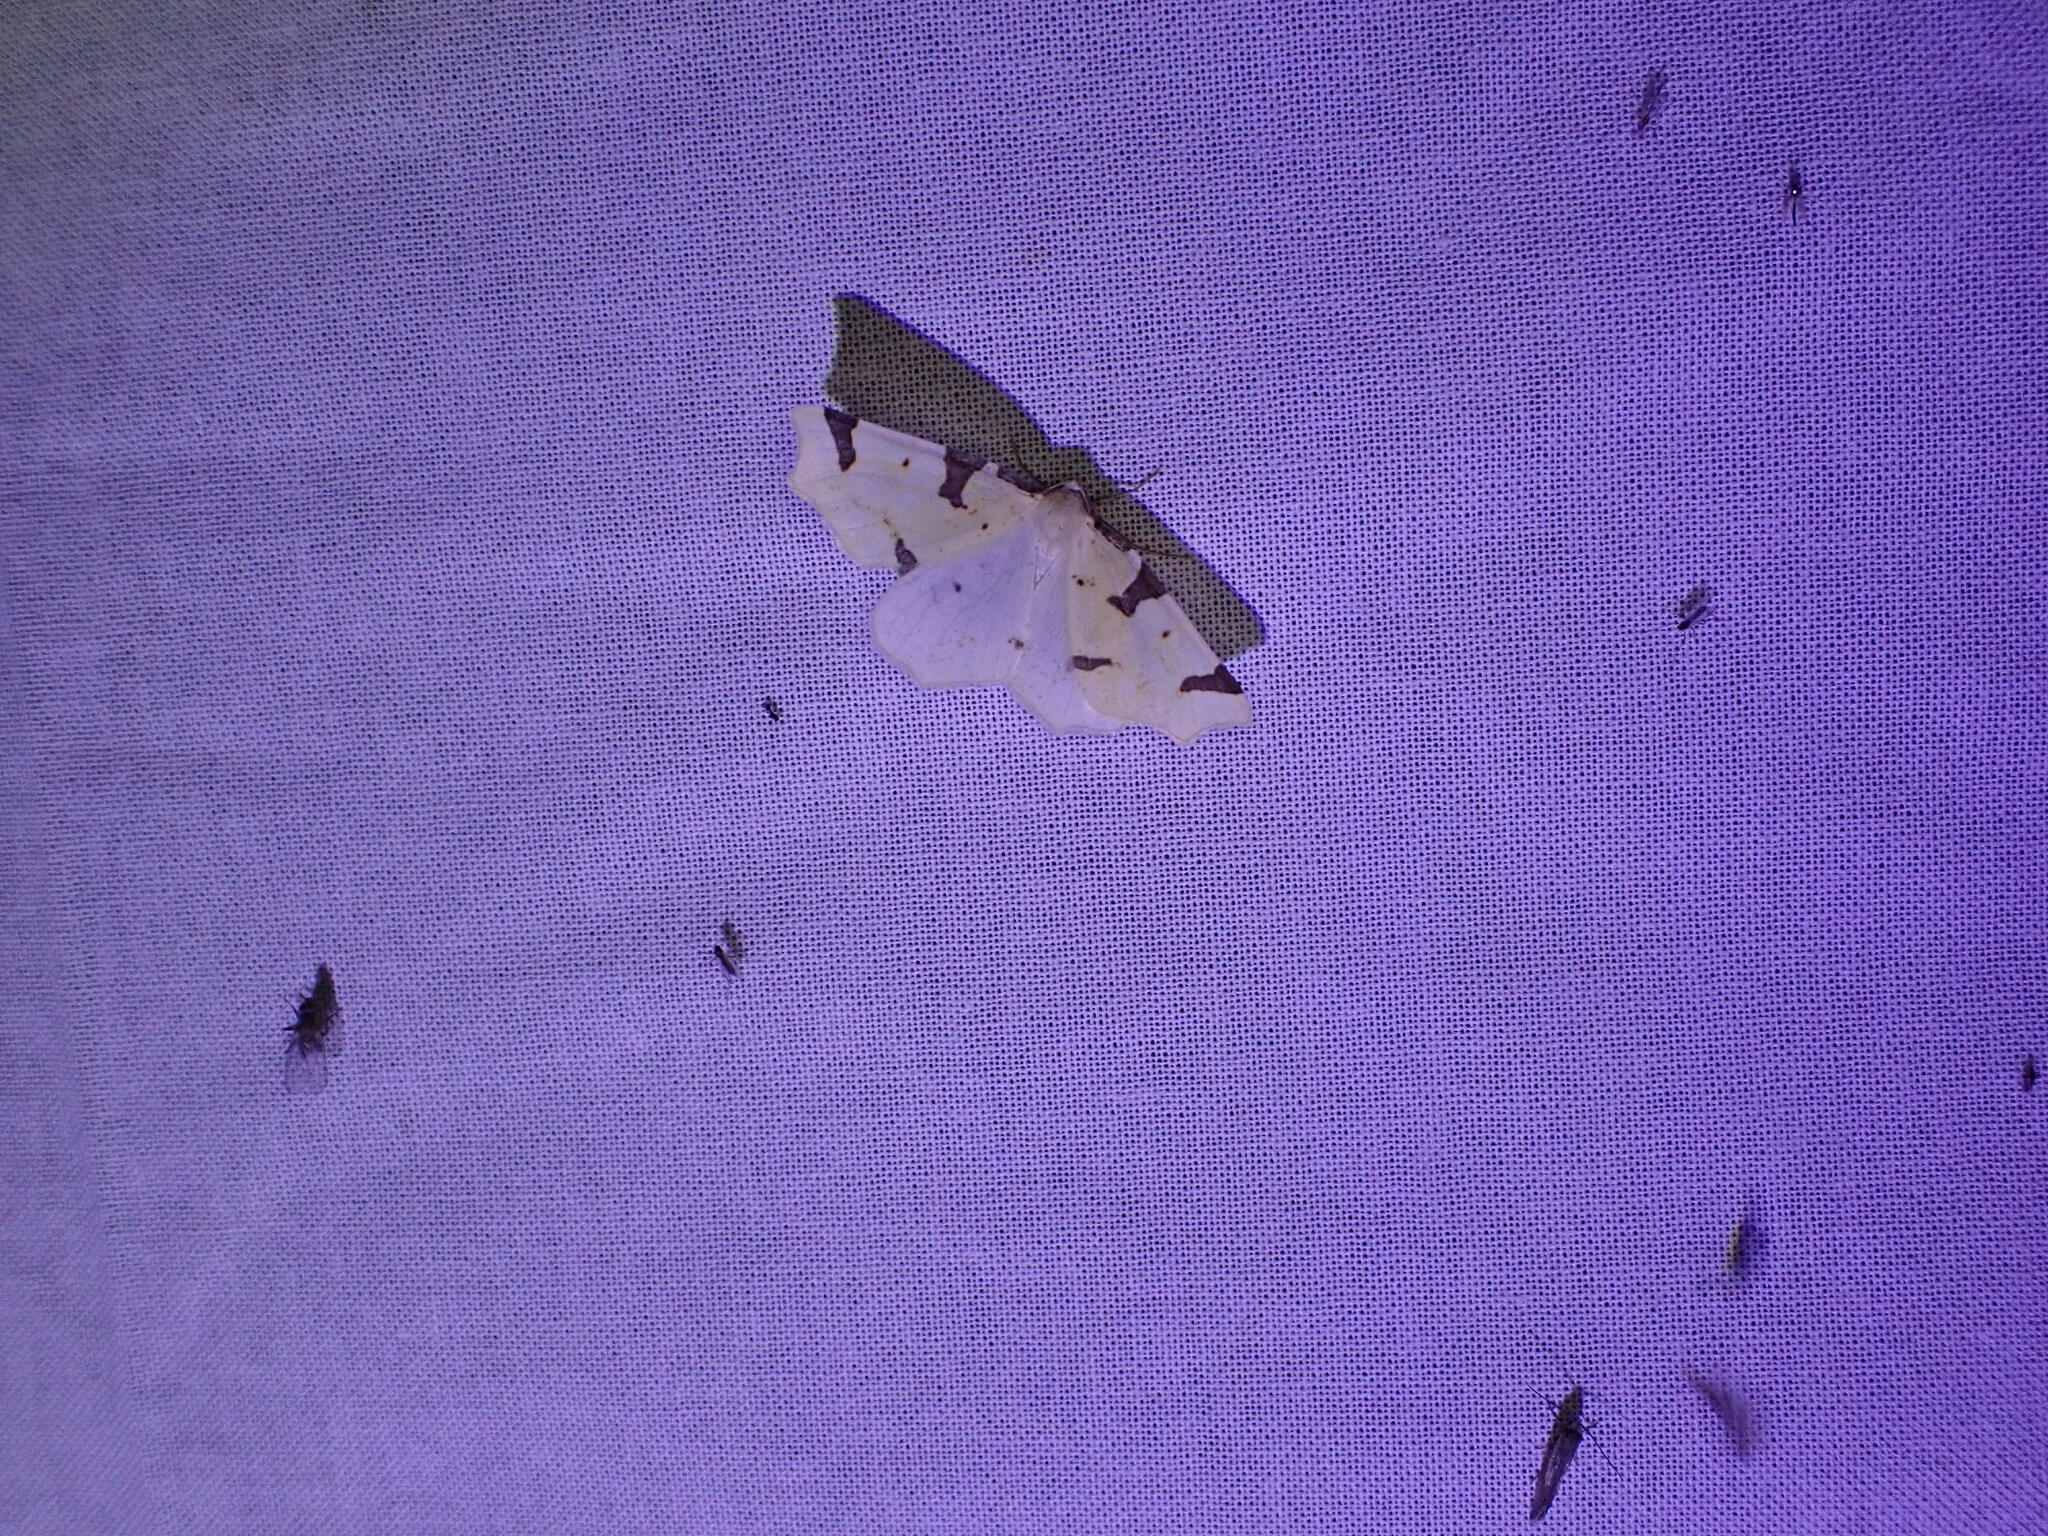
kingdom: Animalia
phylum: Arthropoda
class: Insecta
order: Lepidoptera
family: Geometridae
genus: Neoterpes
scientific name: Neoterpes trianguliferata
